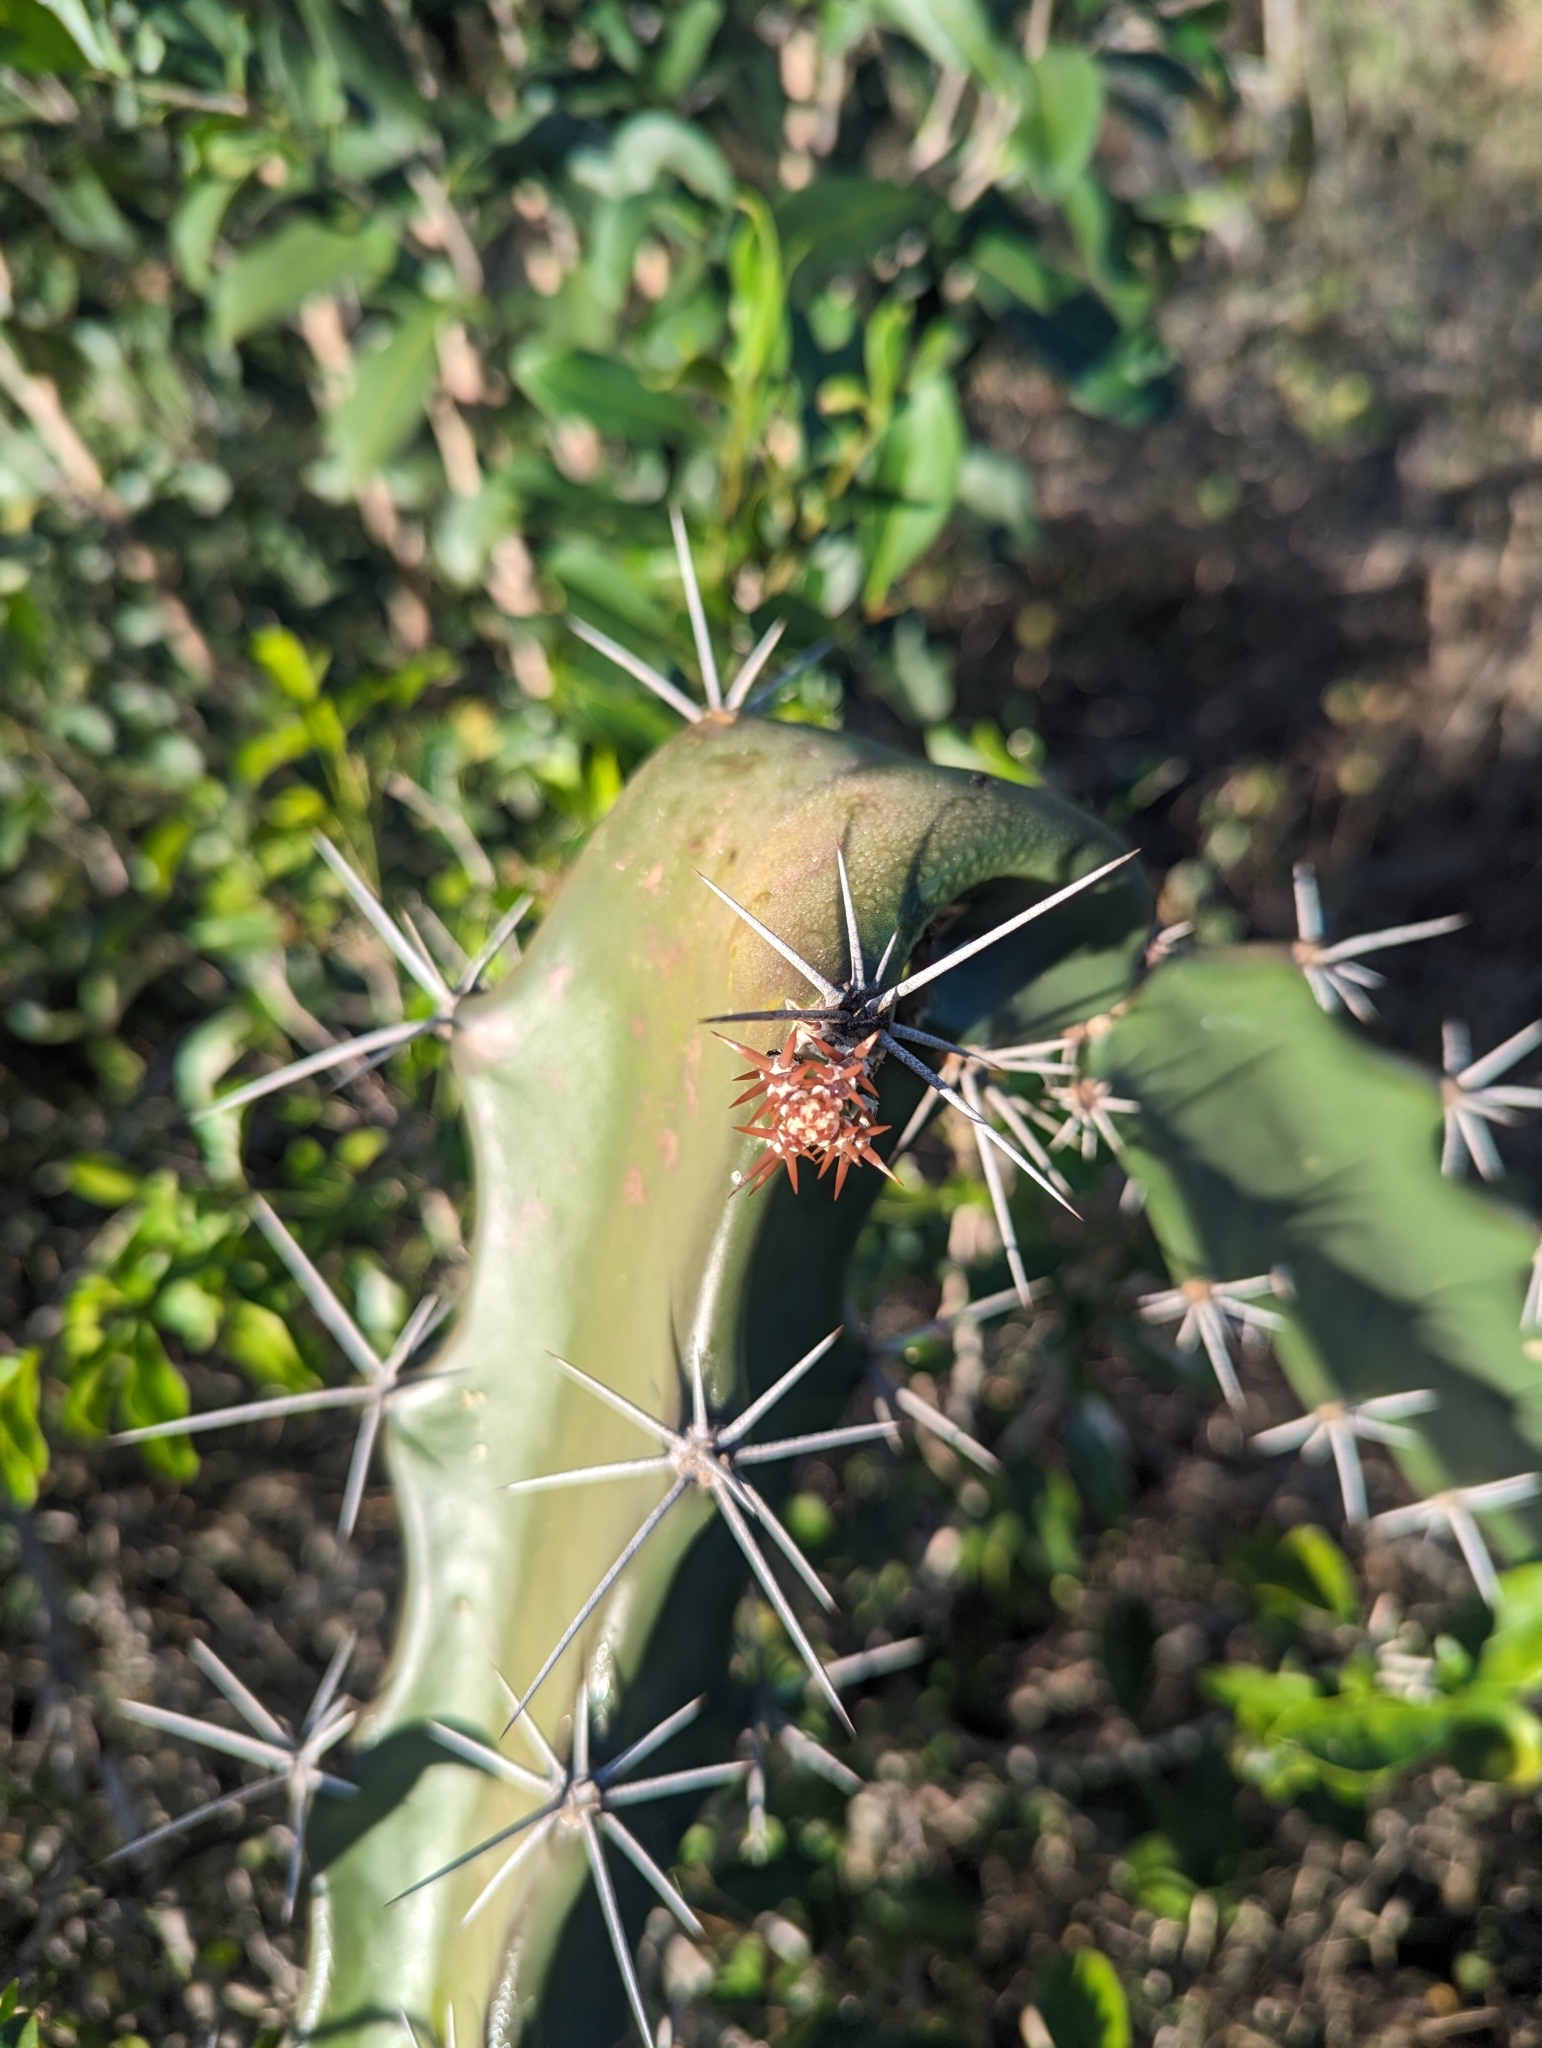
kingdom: Plantae
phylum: Tracheophyta
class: Magnoliopsida
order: Caryophyllales
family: Cactaceae
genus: Acanthocereus
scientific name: Acanthocereus tetragonus
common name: Triangle cactus
